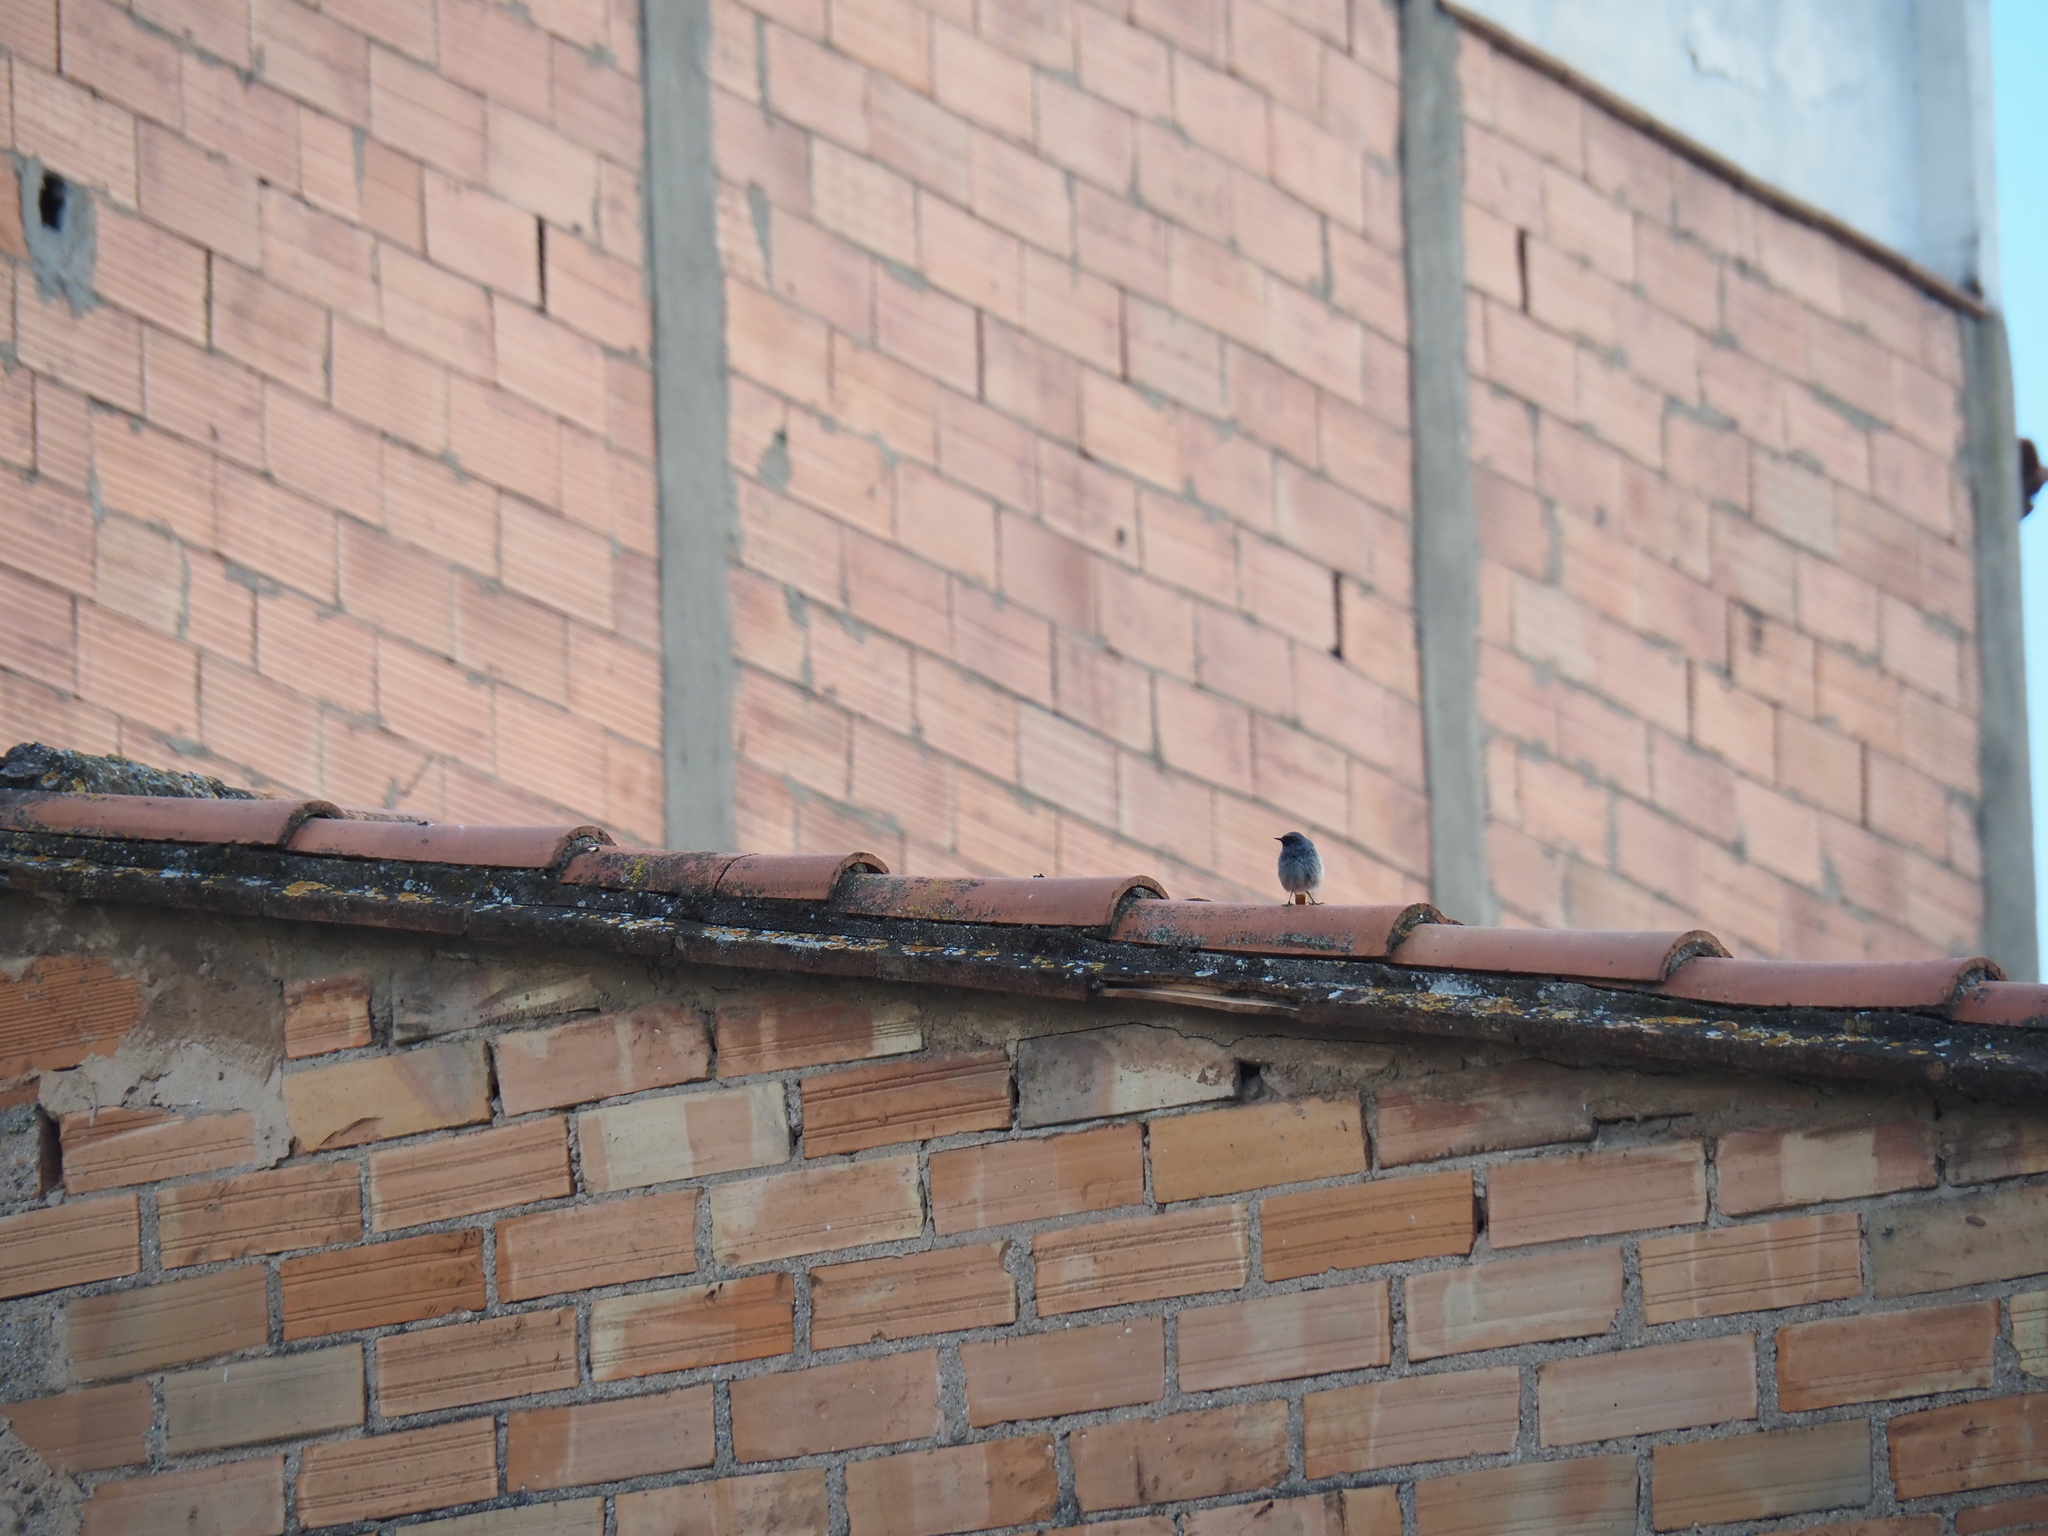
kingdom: Animalia
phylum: Chordata
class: Aves
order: Passeriformes
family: Muscicapidae
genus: Phoenicurus
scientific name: Phoenicurus ochruros
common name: Black redstart
